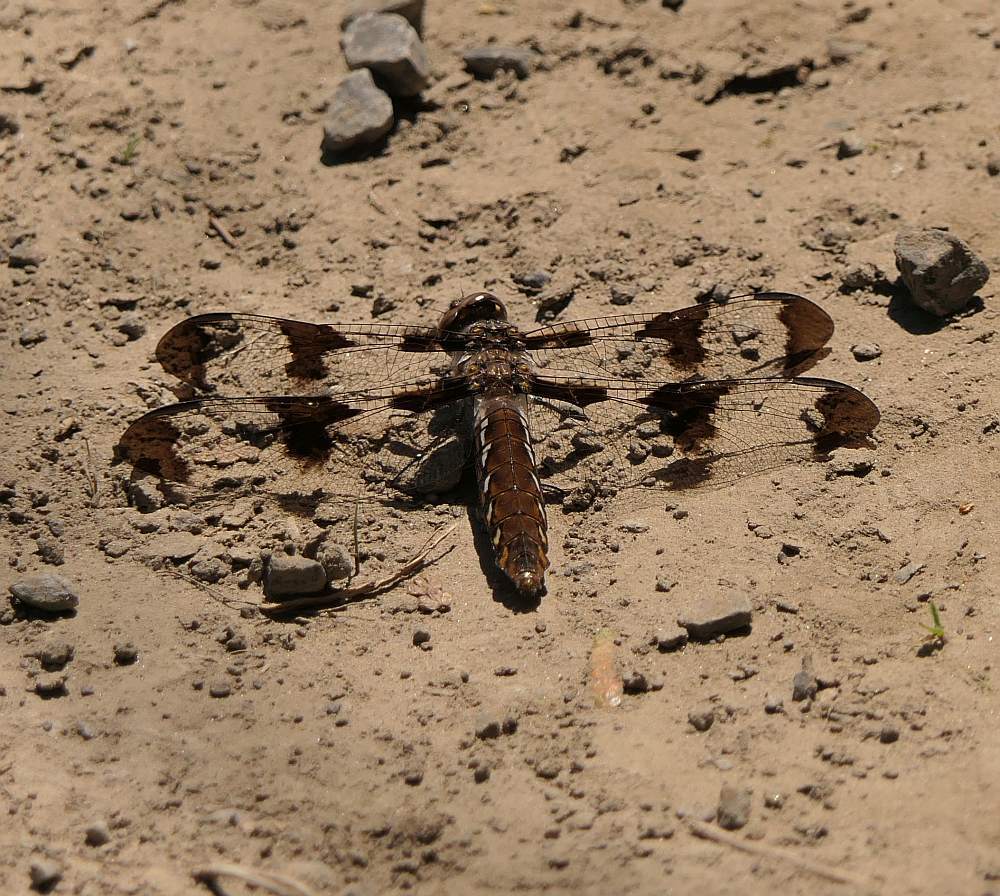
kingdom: Animalia
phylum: Arthropoda
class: Insecta
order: Odonata
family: Libellulidae
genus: Plathemis
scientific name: Plathemis lydia
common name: Common whitetail
